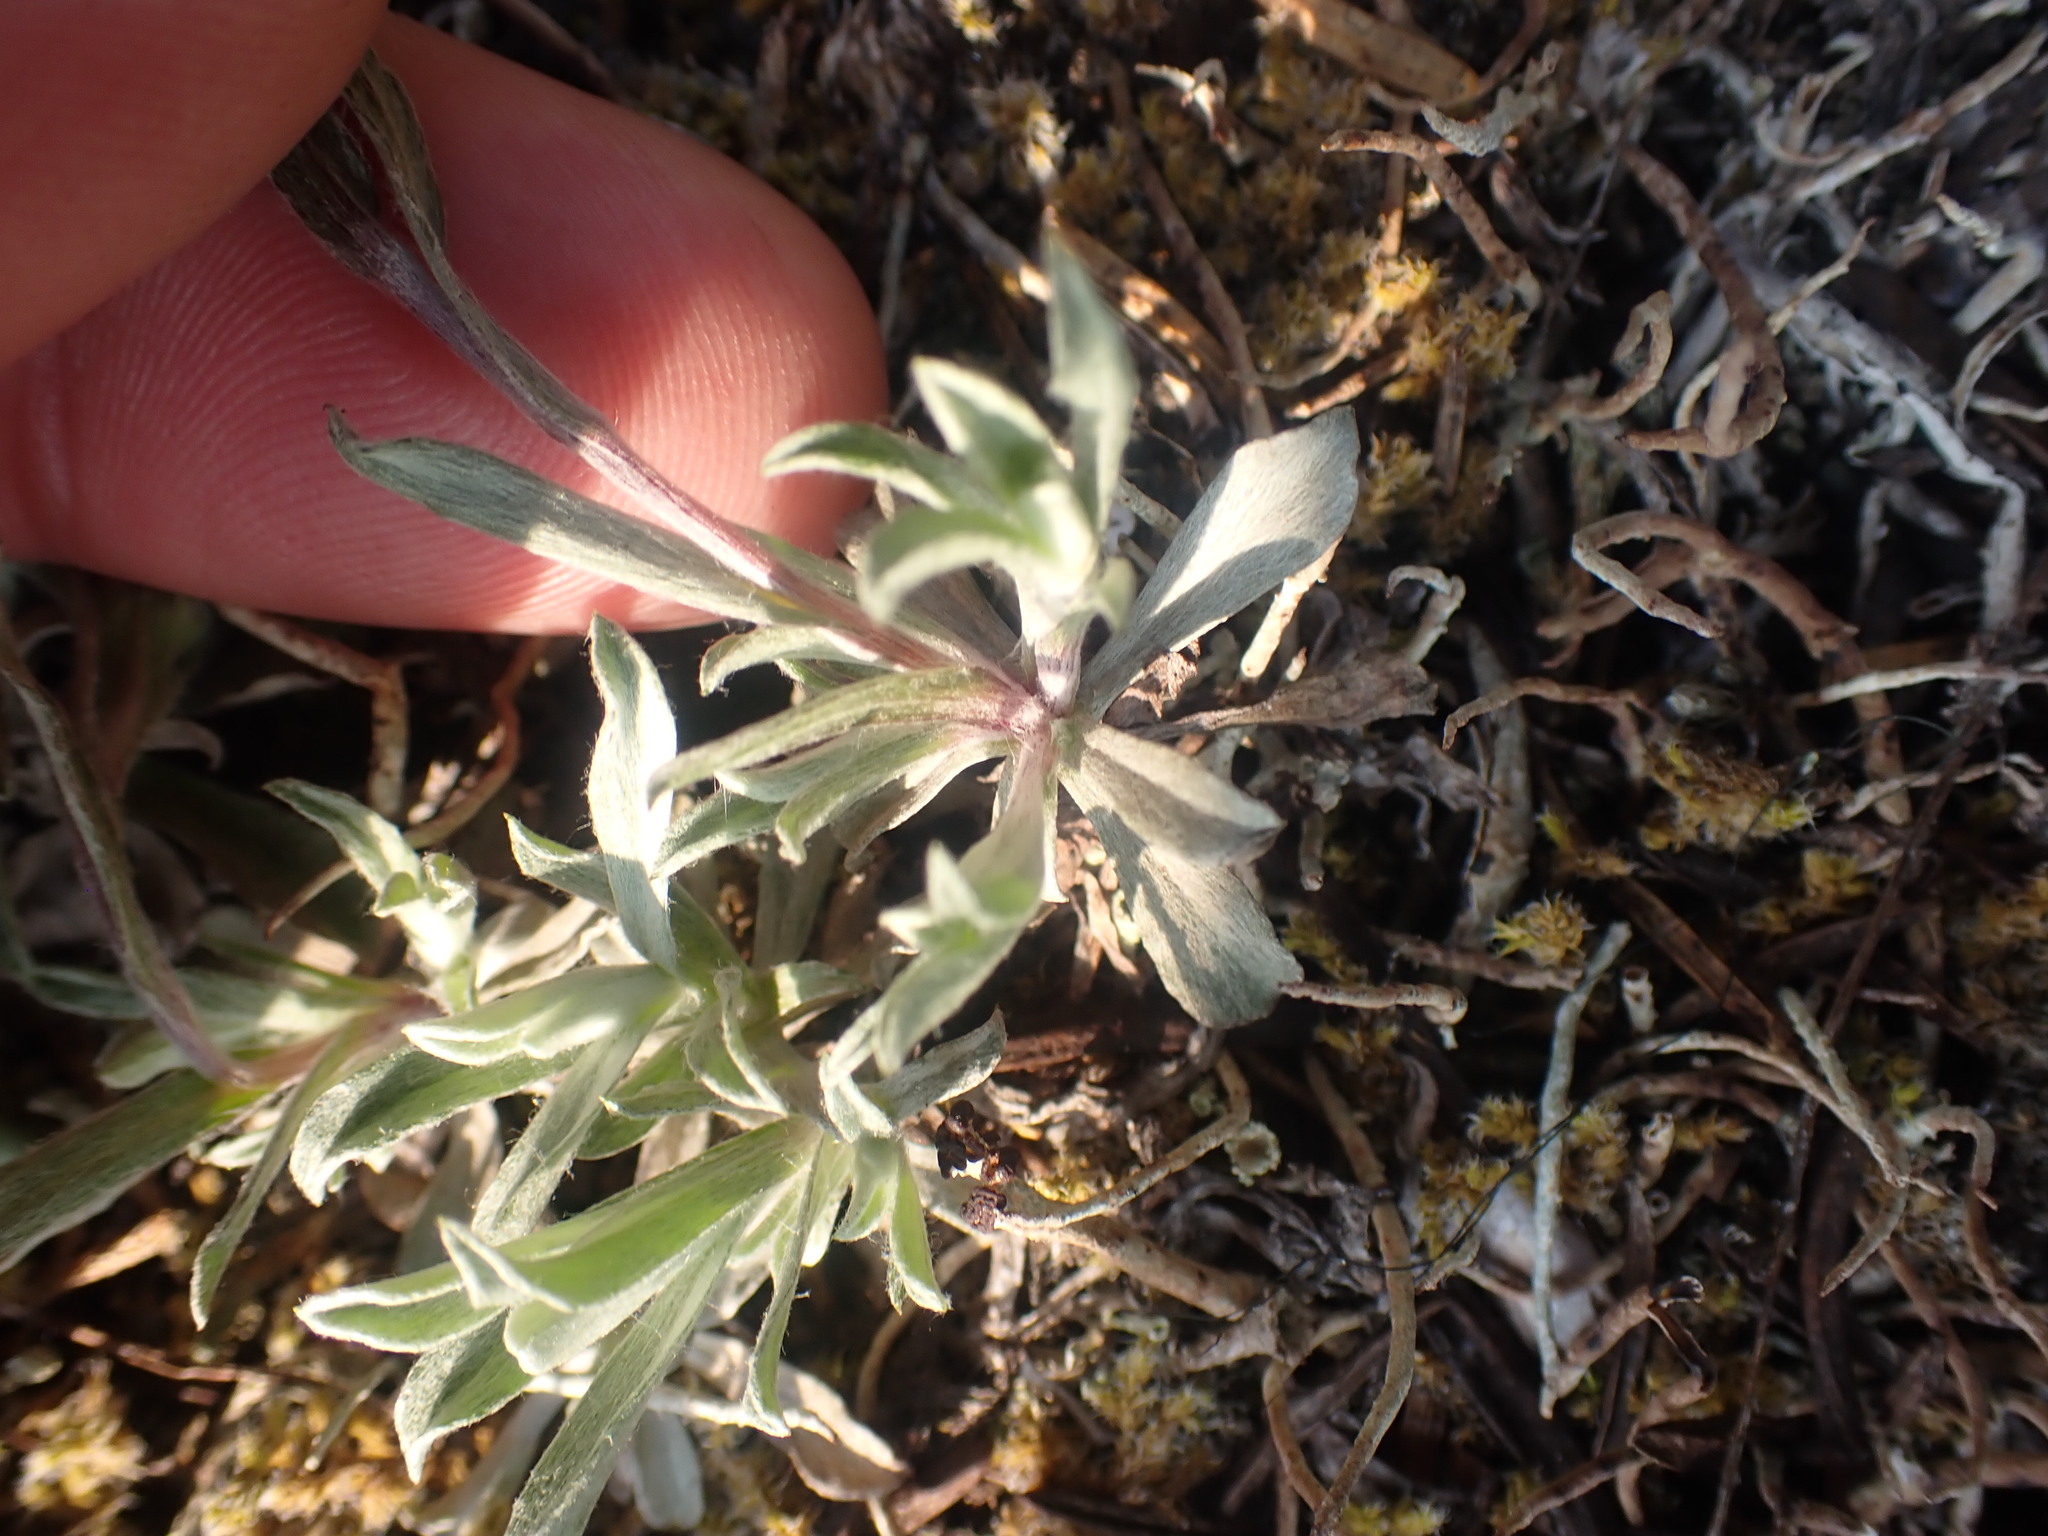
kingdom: Plantae
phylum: Tracheophyta
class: Magnoliopsida
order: Asterales
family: Asteraceae
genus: Antennaria
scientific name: Antennaria rosea
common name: Rosy pussytoes
